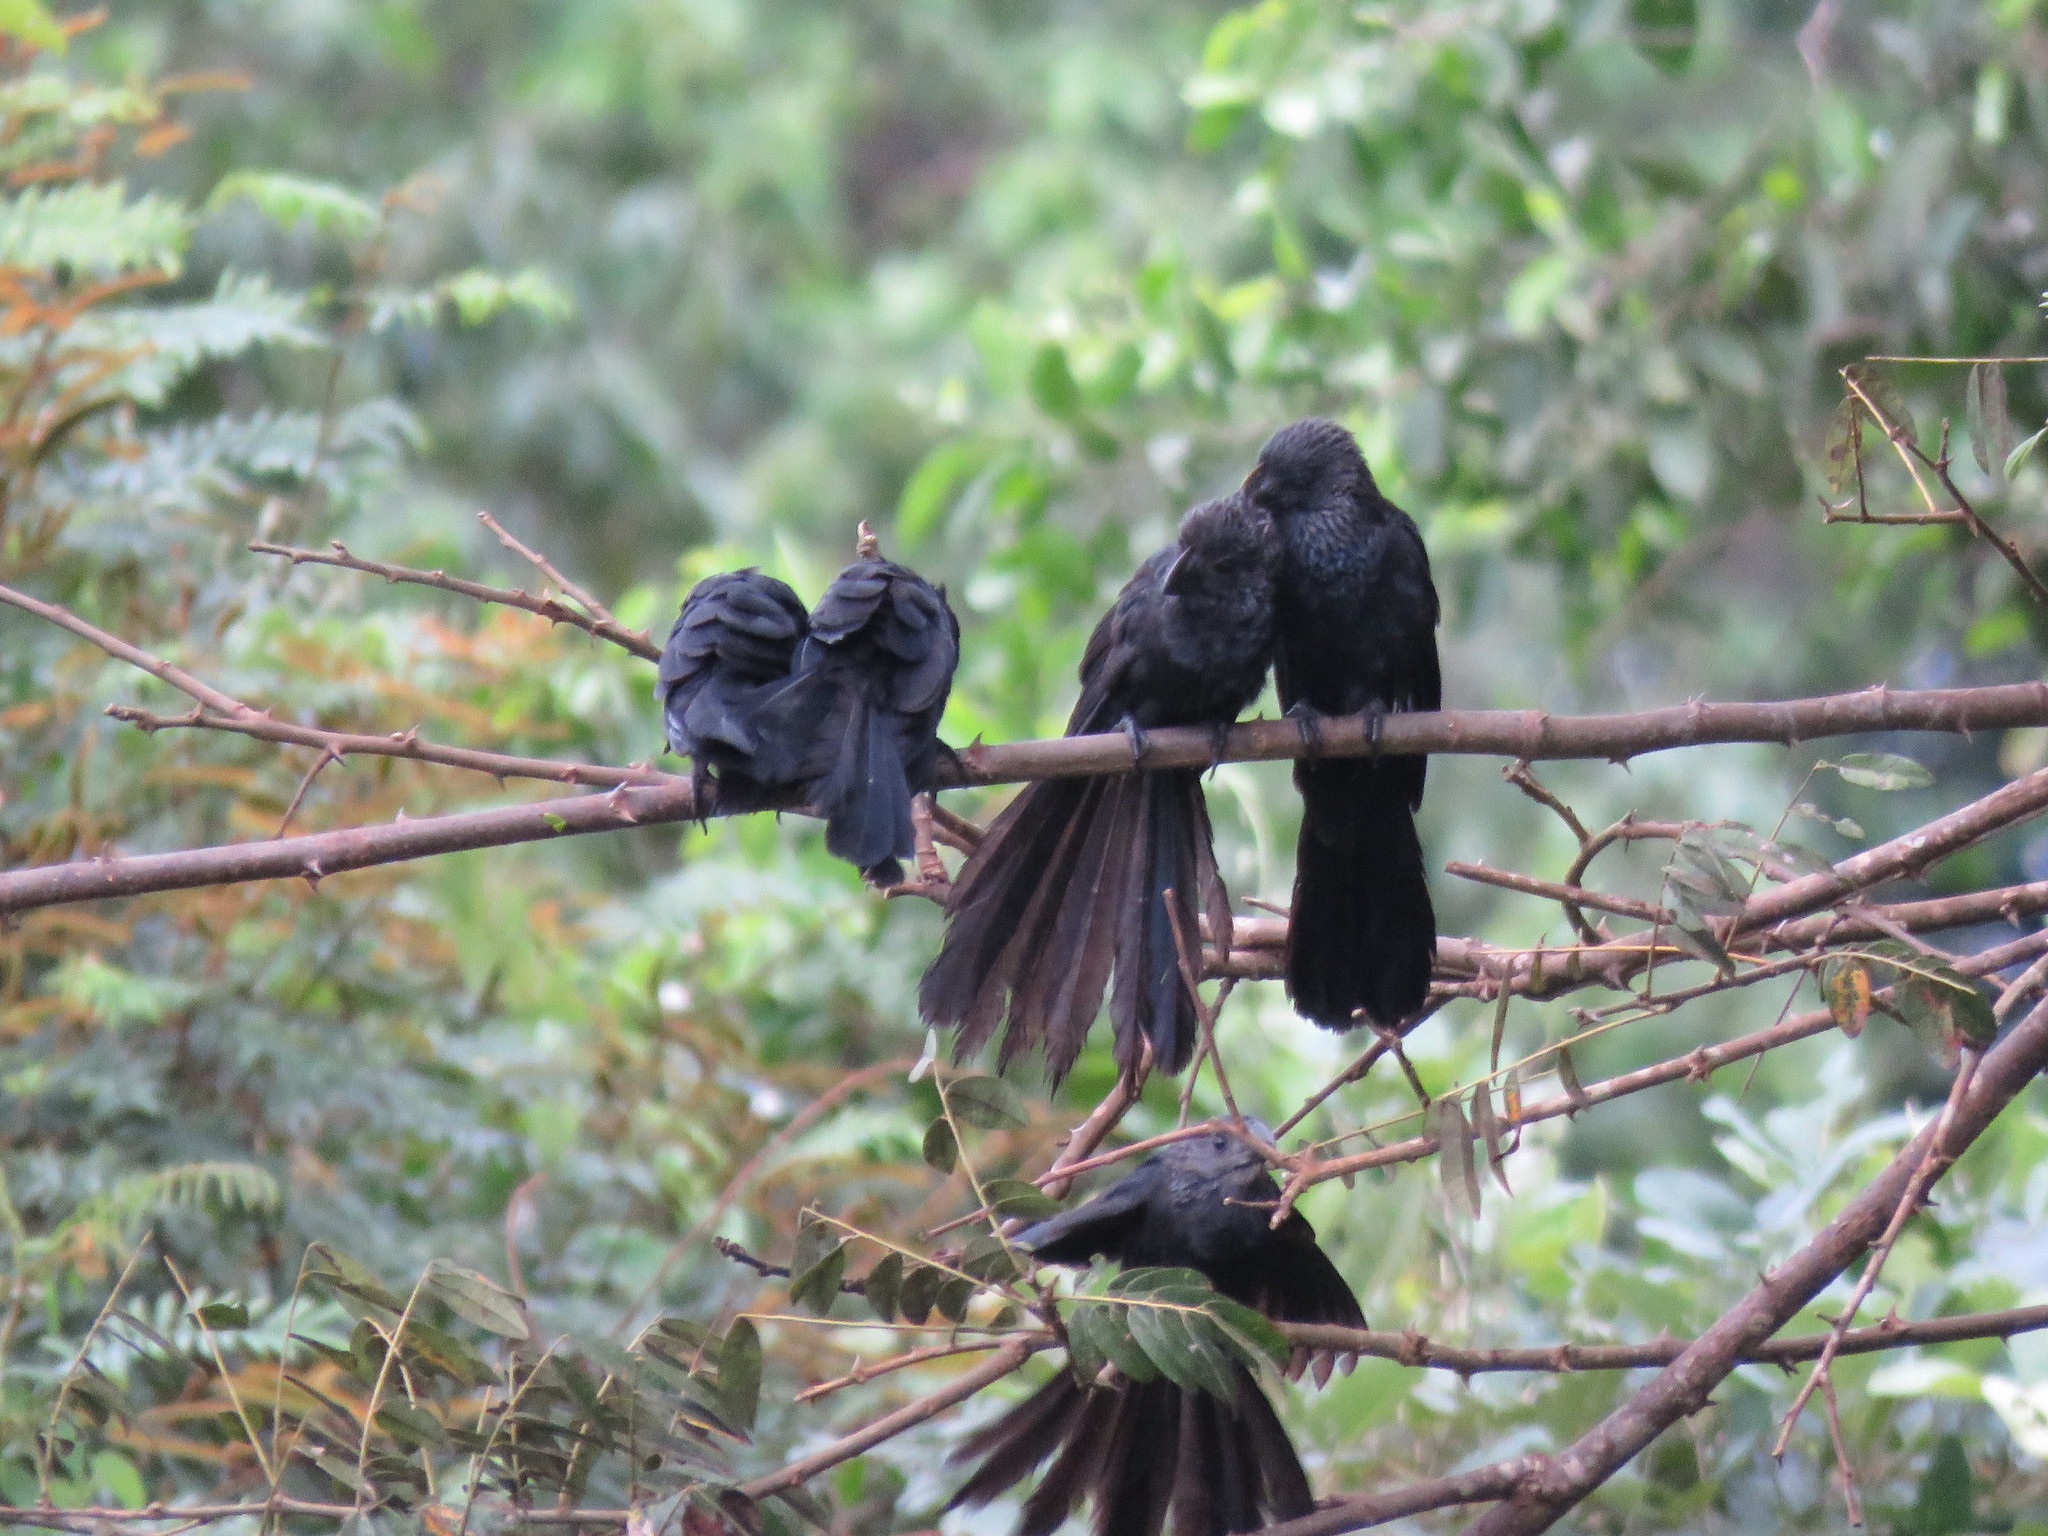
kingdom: Animalia
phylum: Chordata
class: Aves
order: Cuculiformes
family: Cuculidae
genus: Crotophaga
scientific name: Crotophaga ani
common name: Smooth-billed ani
